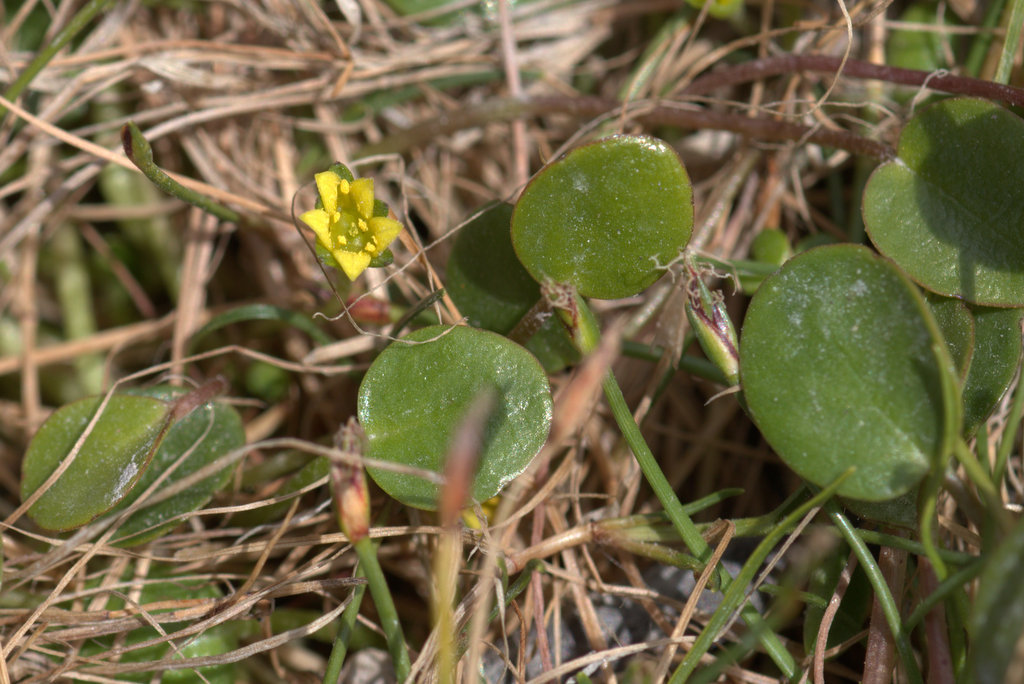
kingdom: Plantae
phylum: Tracheophyta
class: Magnoliopsida
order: Asterales
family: Menyanthaceae
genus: Liparophyllum
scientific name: Liparophyllum exiguum
